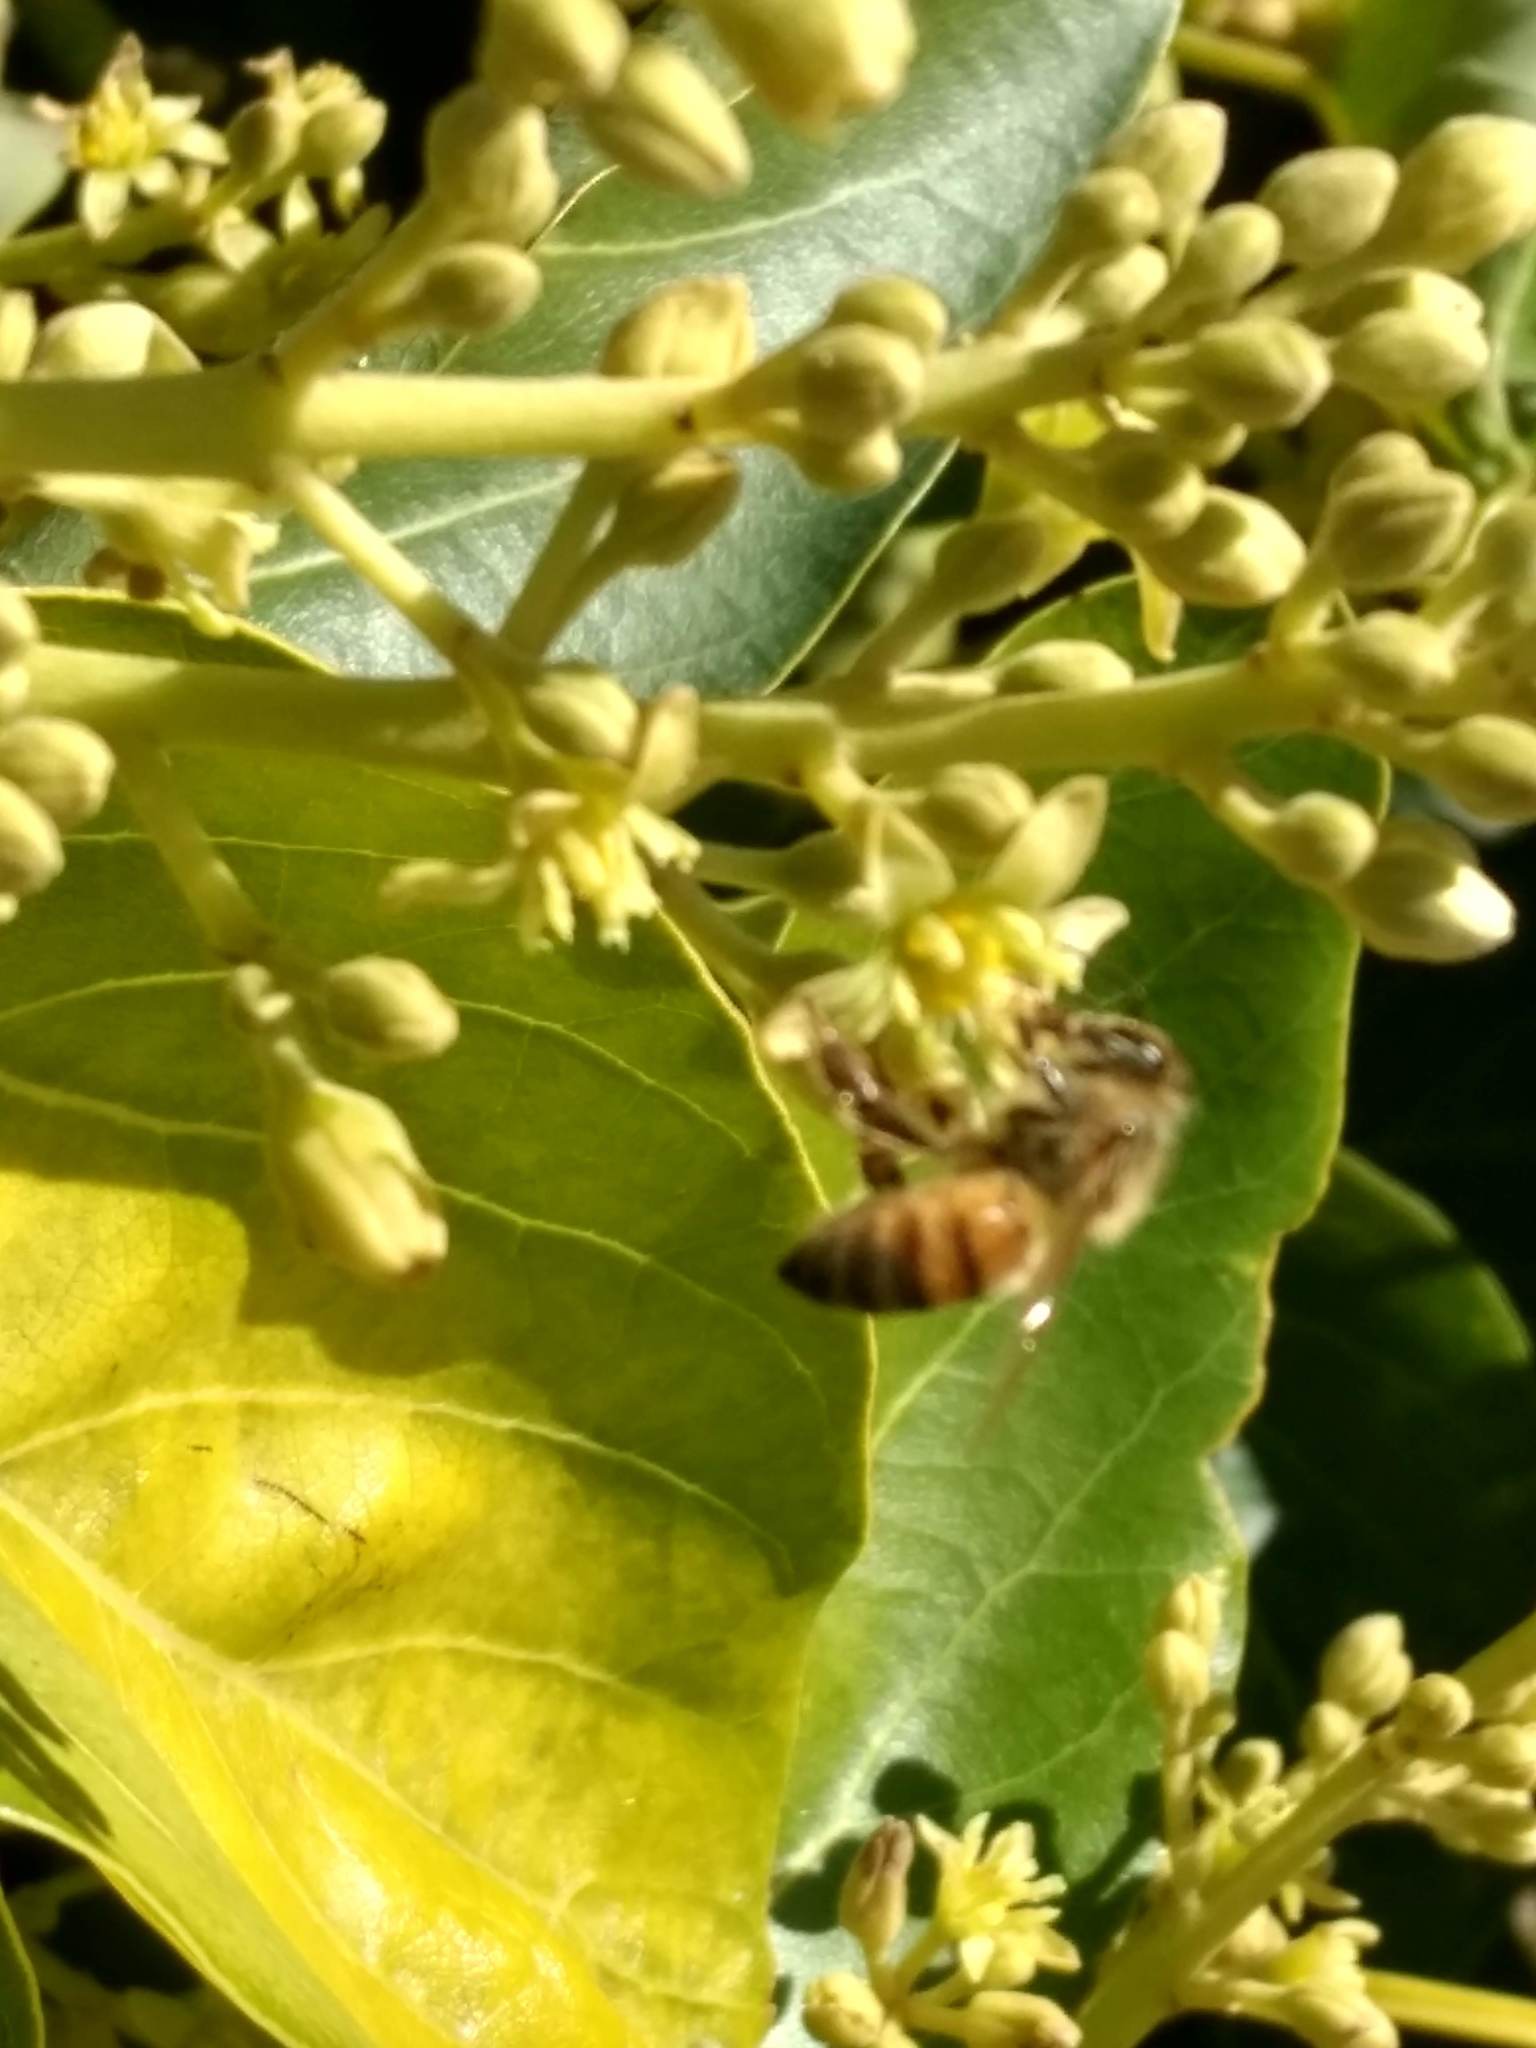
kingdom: Animalia
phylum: Arthropoda
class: Insecta
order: Hymenoptera
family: Apidae
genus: Apis
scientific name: Apis mellifera
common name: Honey bee
